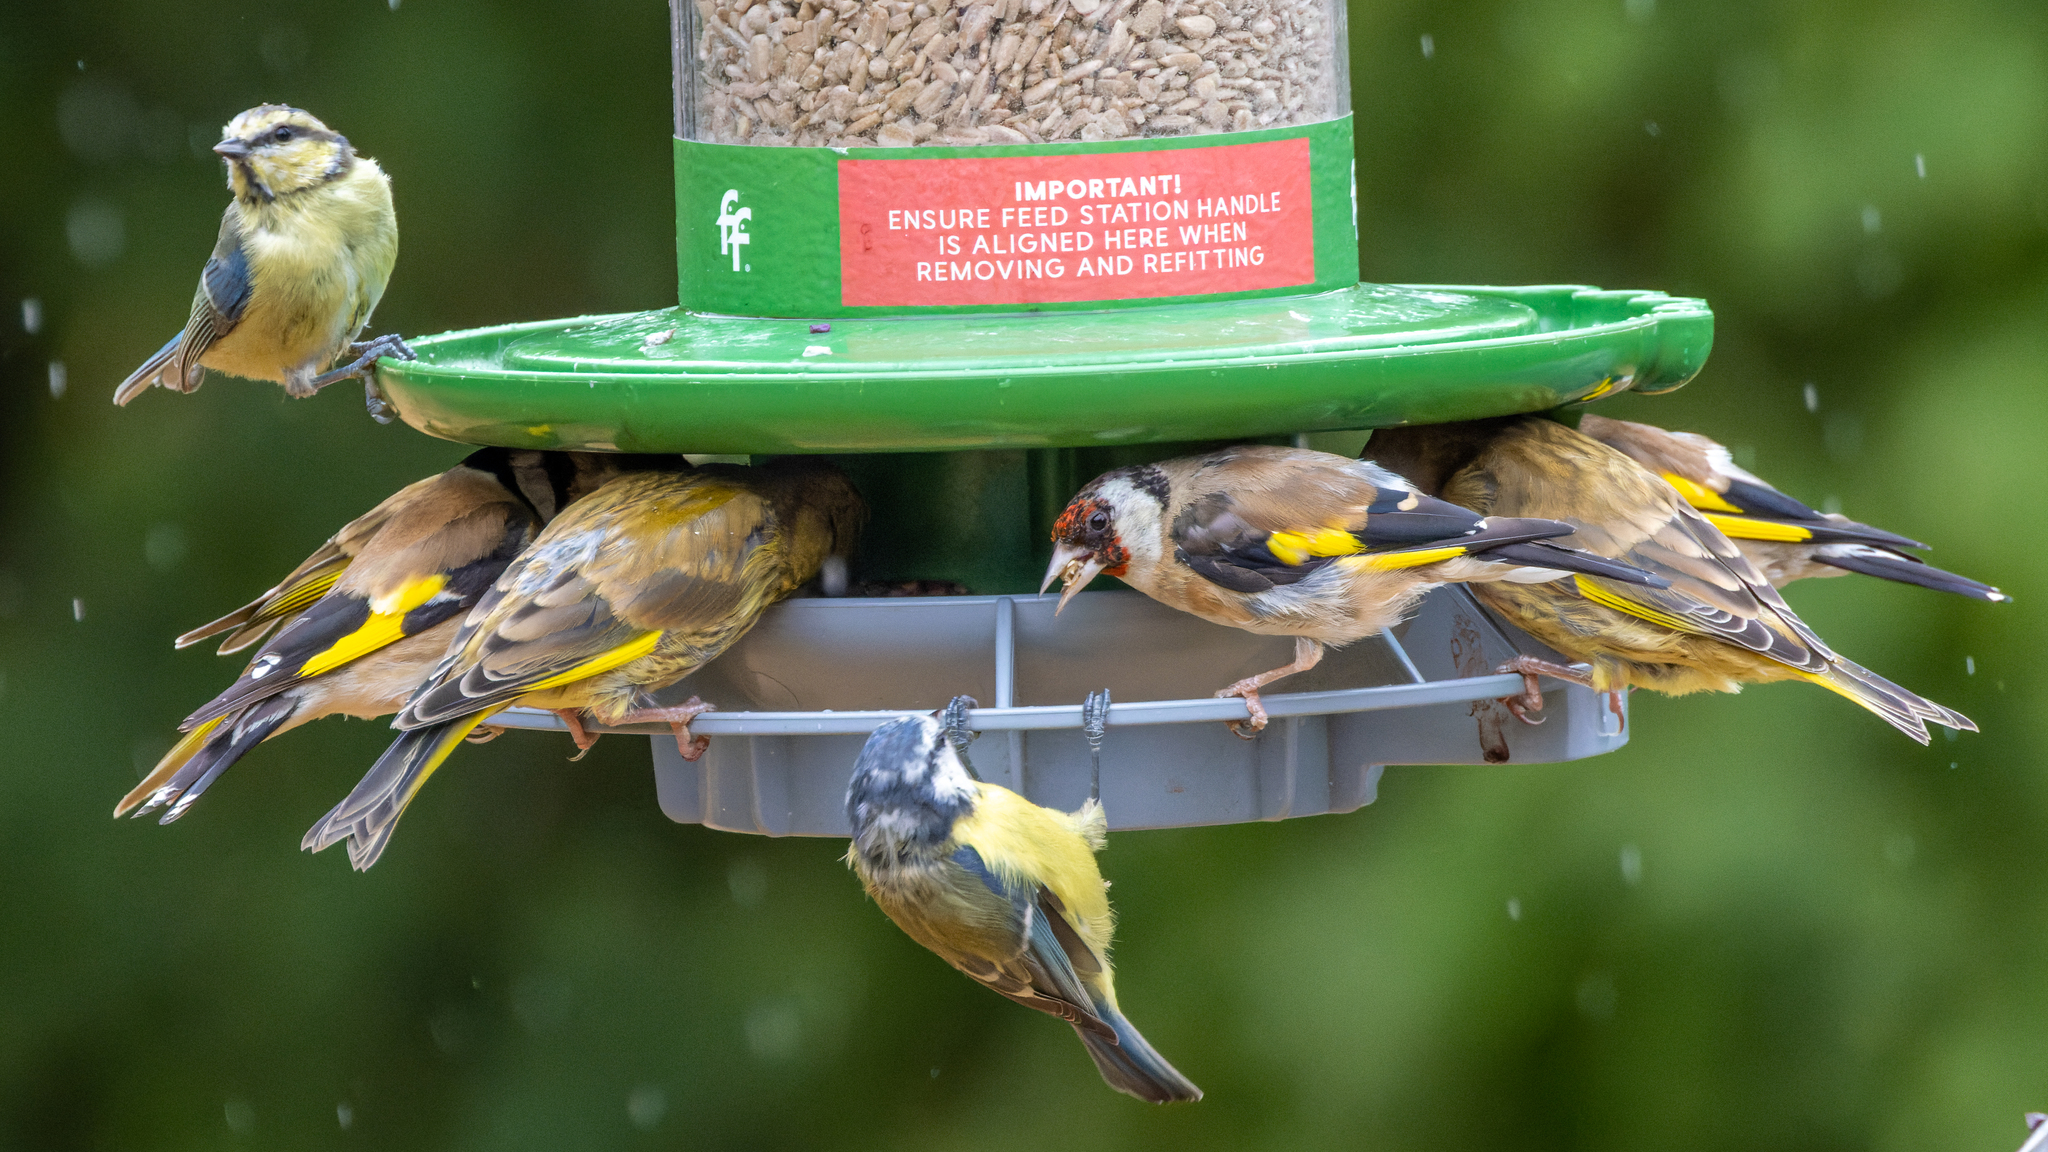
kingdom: Animalia
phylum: Chordata
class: Aves
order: Passeriformes
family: Paridae
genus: Cyanistes
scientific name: Cyanistes caeruleus
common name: Eurasian blue tit
